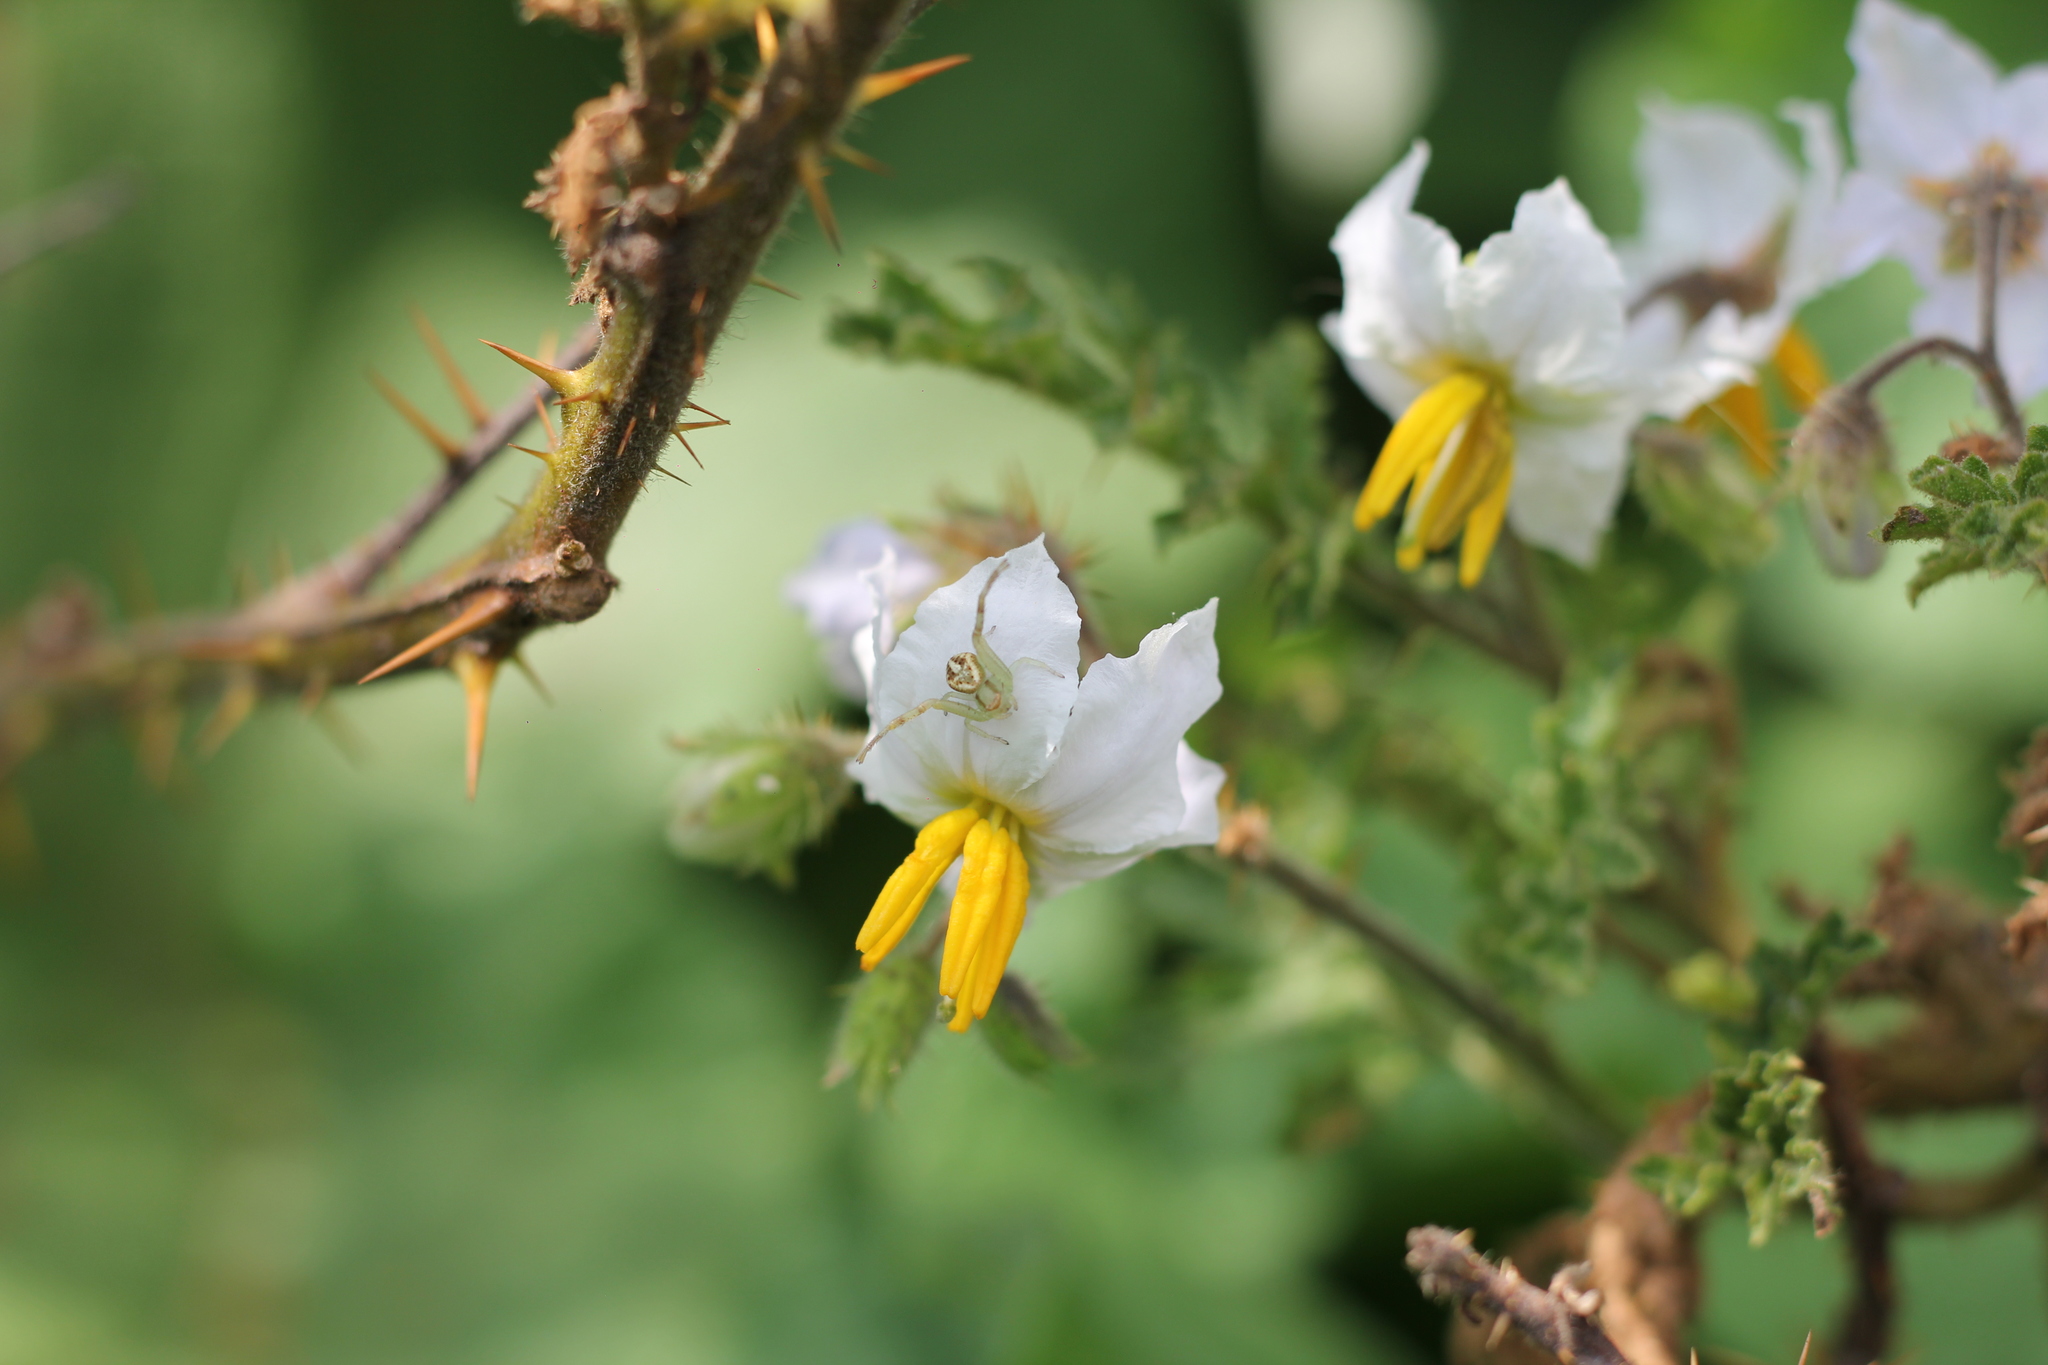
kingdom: Plantae
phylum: Tracheophyta
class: Magnoliopsida
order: Solanales
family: Solanaceae
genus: Solanum
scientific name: Solanum sisymbriifolium
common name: Red buffalo-bur
